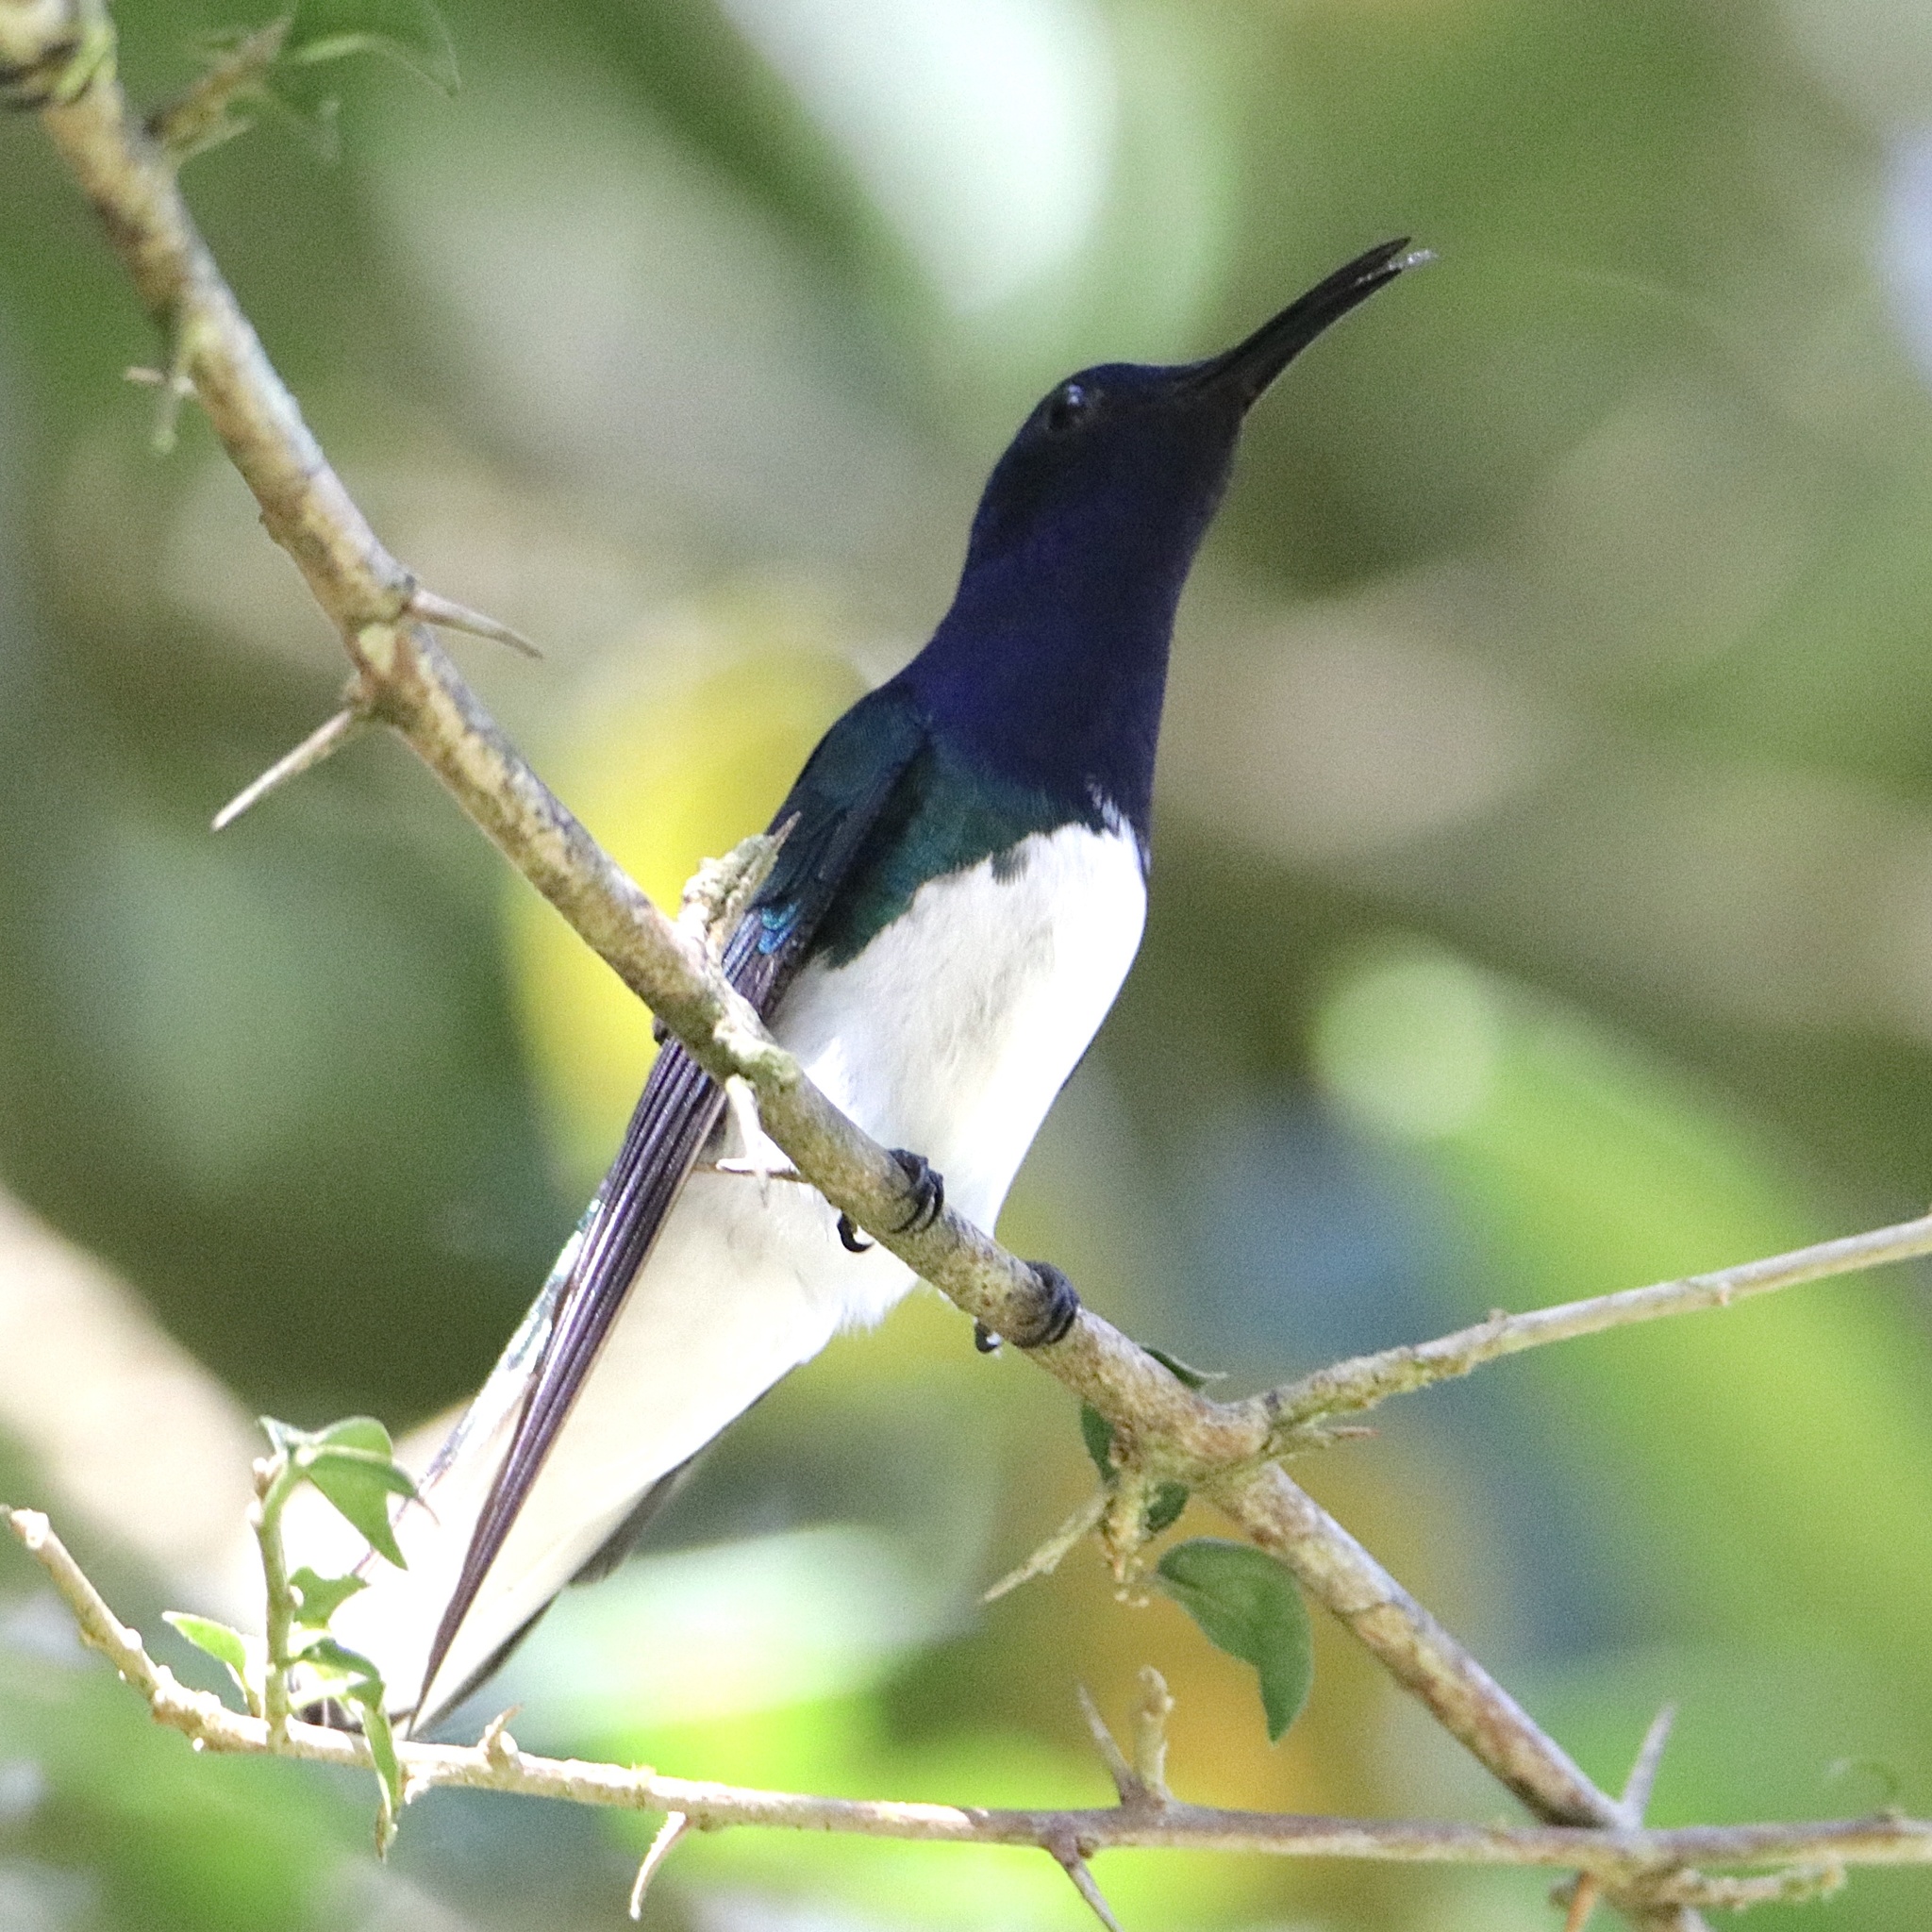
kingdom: Animalia
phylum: Chordata
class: Aves
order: Apodiformes
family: Trochilidae
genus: Florisuga
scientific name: Florisuga mellivora
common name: White-necked jacobin
